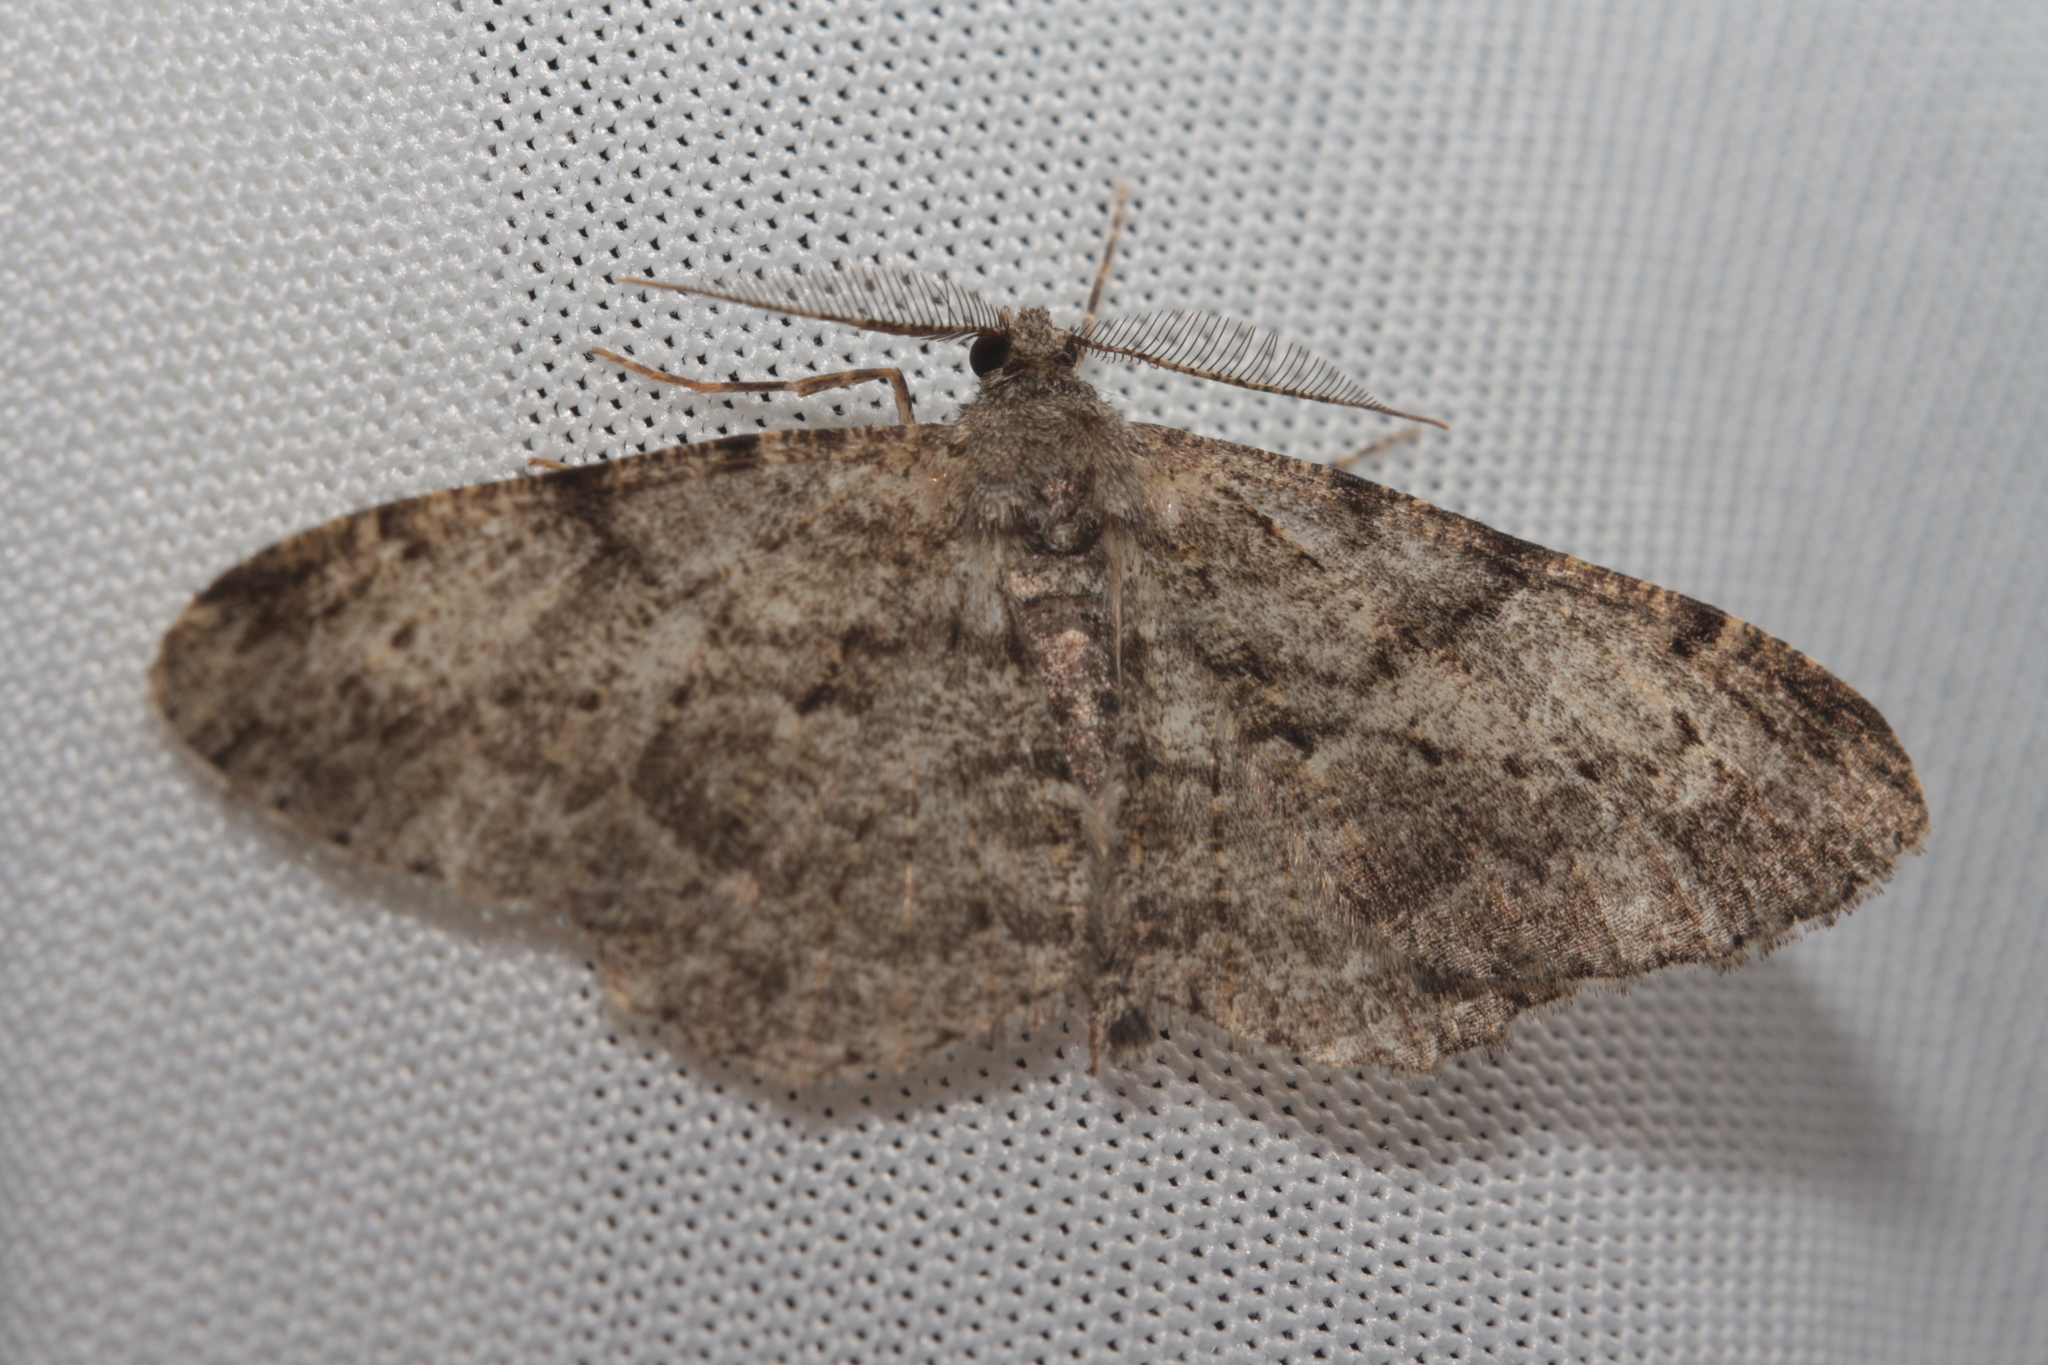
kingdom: Animalia
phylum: Arthropoda
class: Insecta
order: Lepidoptera
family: Geometridae
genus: Peribatodes
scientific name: Peribatodes rhomboidaria
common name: Willow beauty
